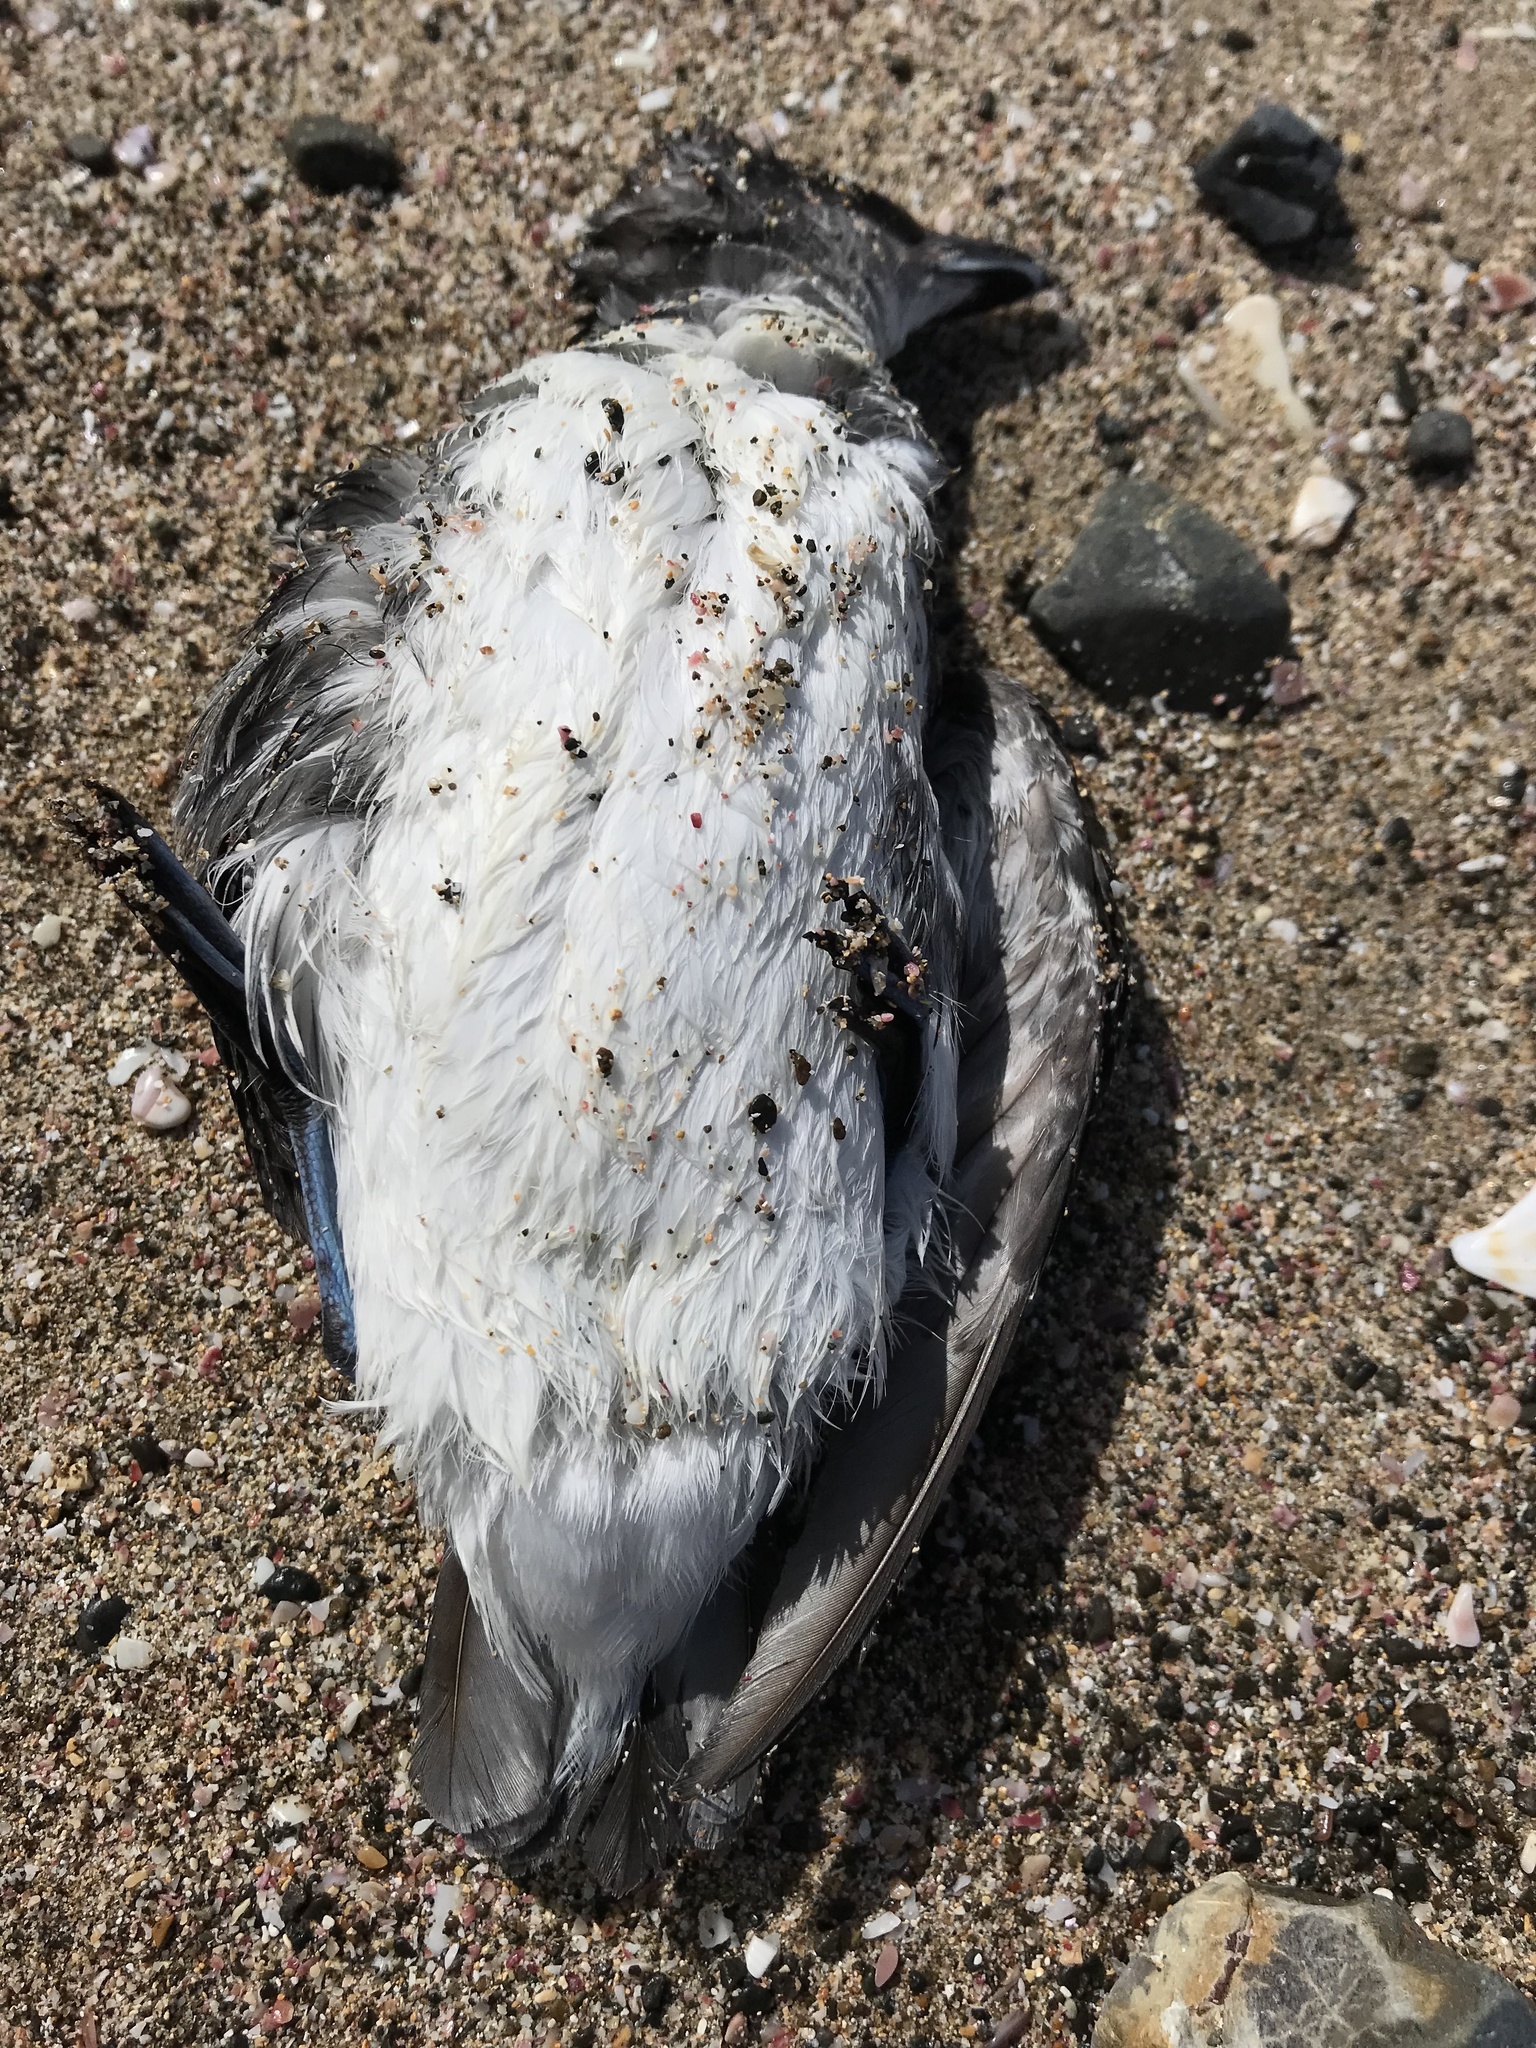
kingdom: Animalia
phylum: Chordata
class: Aves
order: Procellariiformes
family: Pelecanoididae
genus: Pelecanoides
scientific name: Pelecanoides urinatrix
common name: Common diving-petrel
